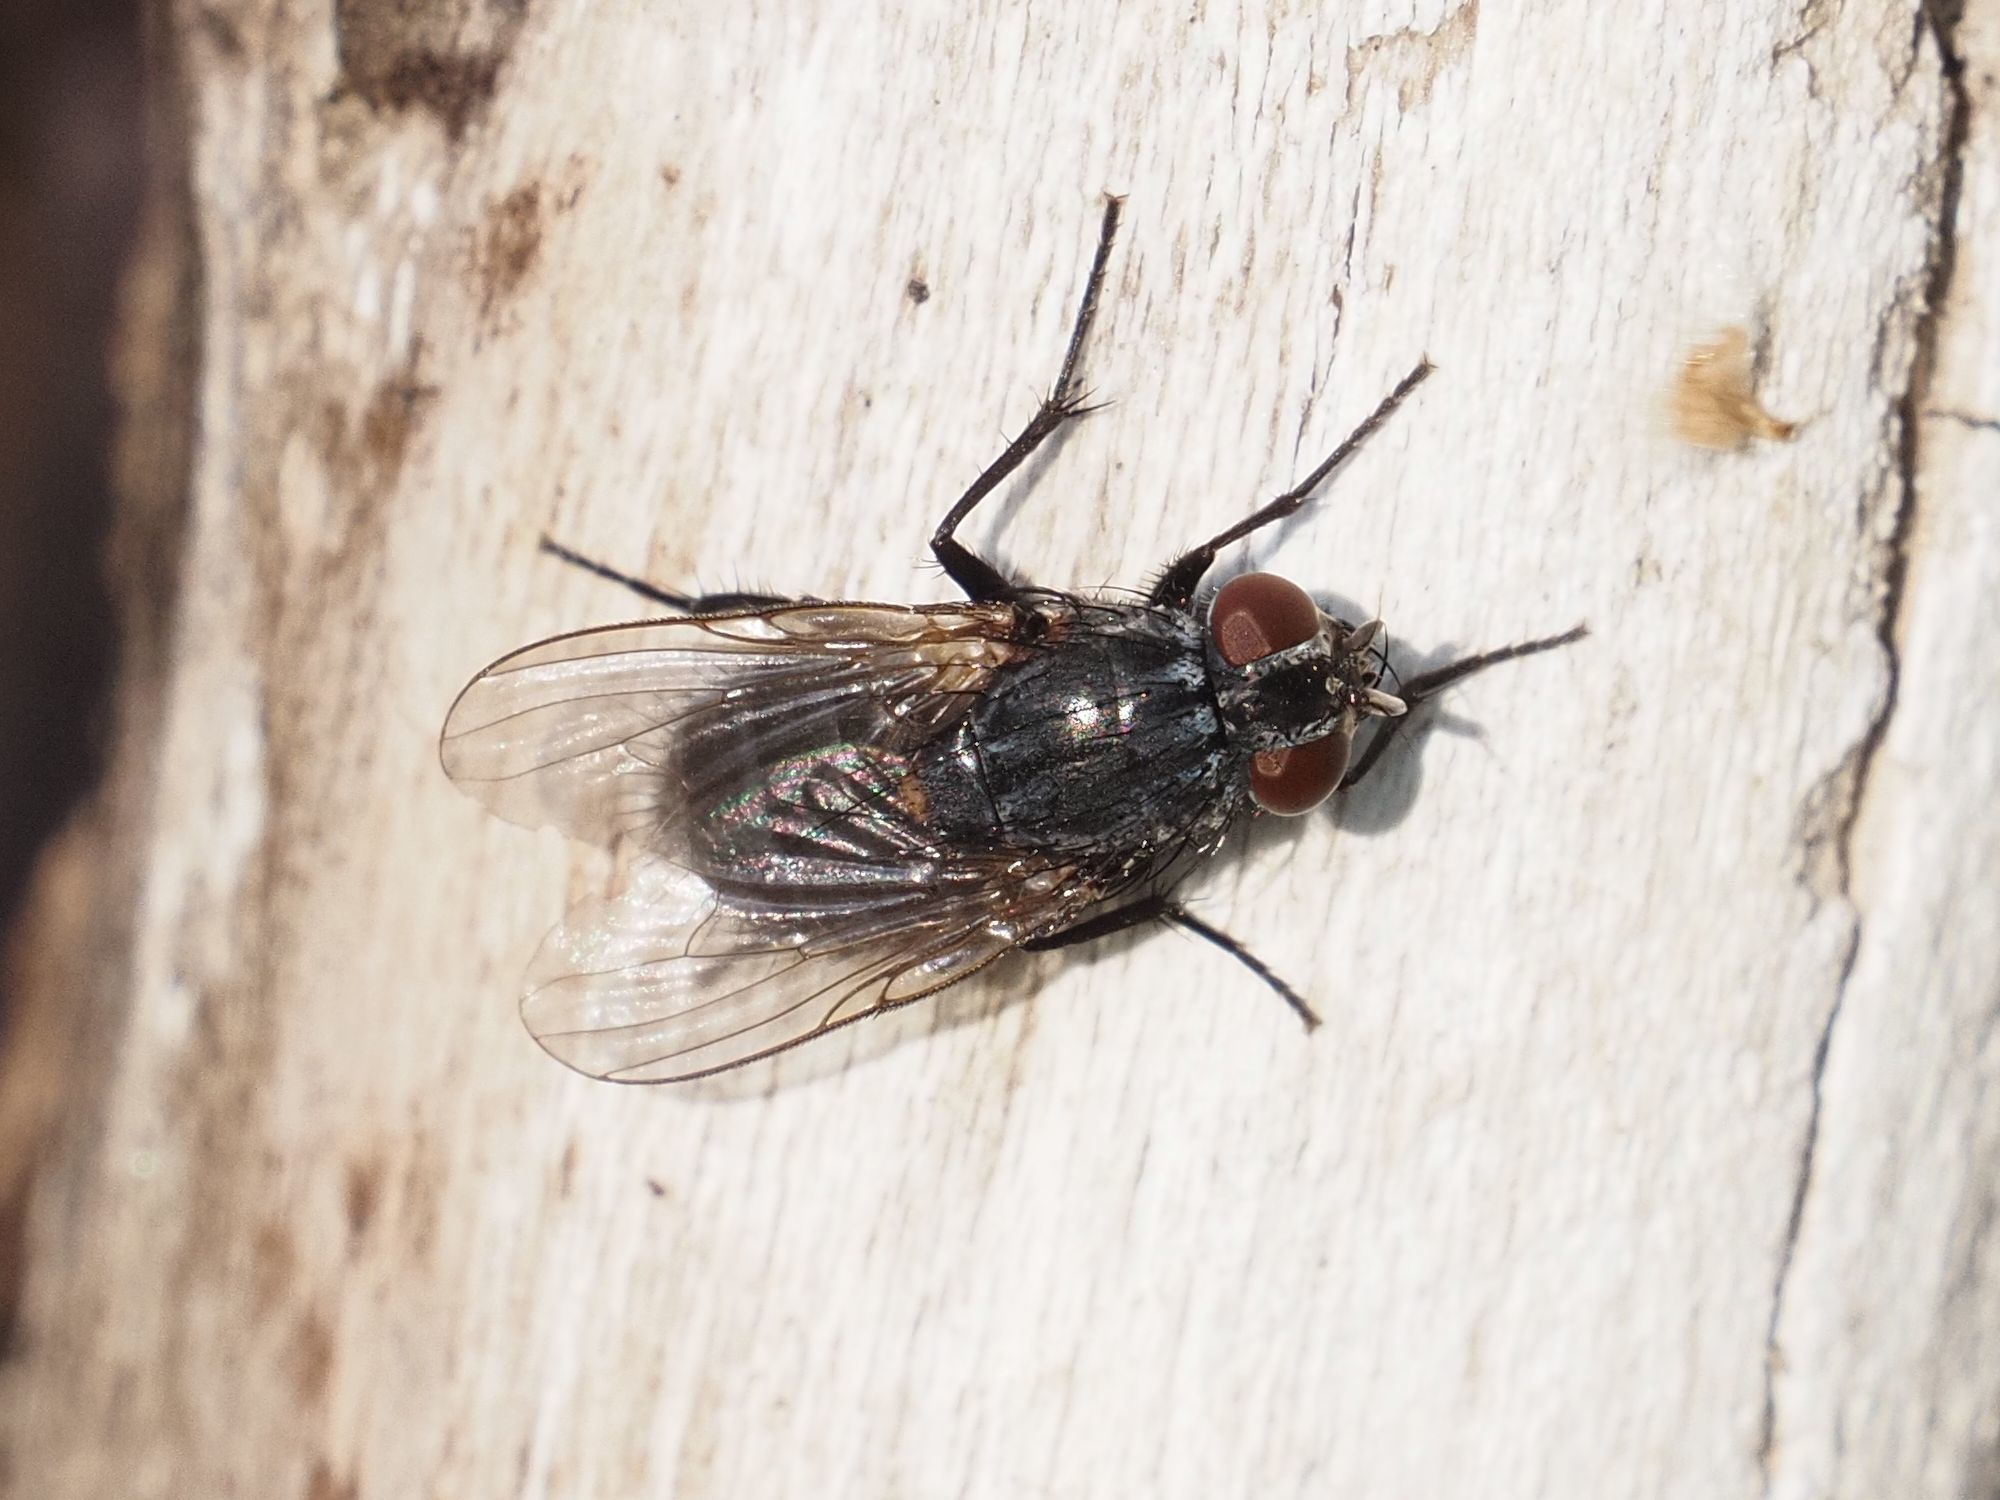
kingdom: Animalia
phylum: Arthropoda
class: Insecta
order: Diptera
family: Muscidae
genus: Muscina
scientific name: Muscina levida
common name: House fly
